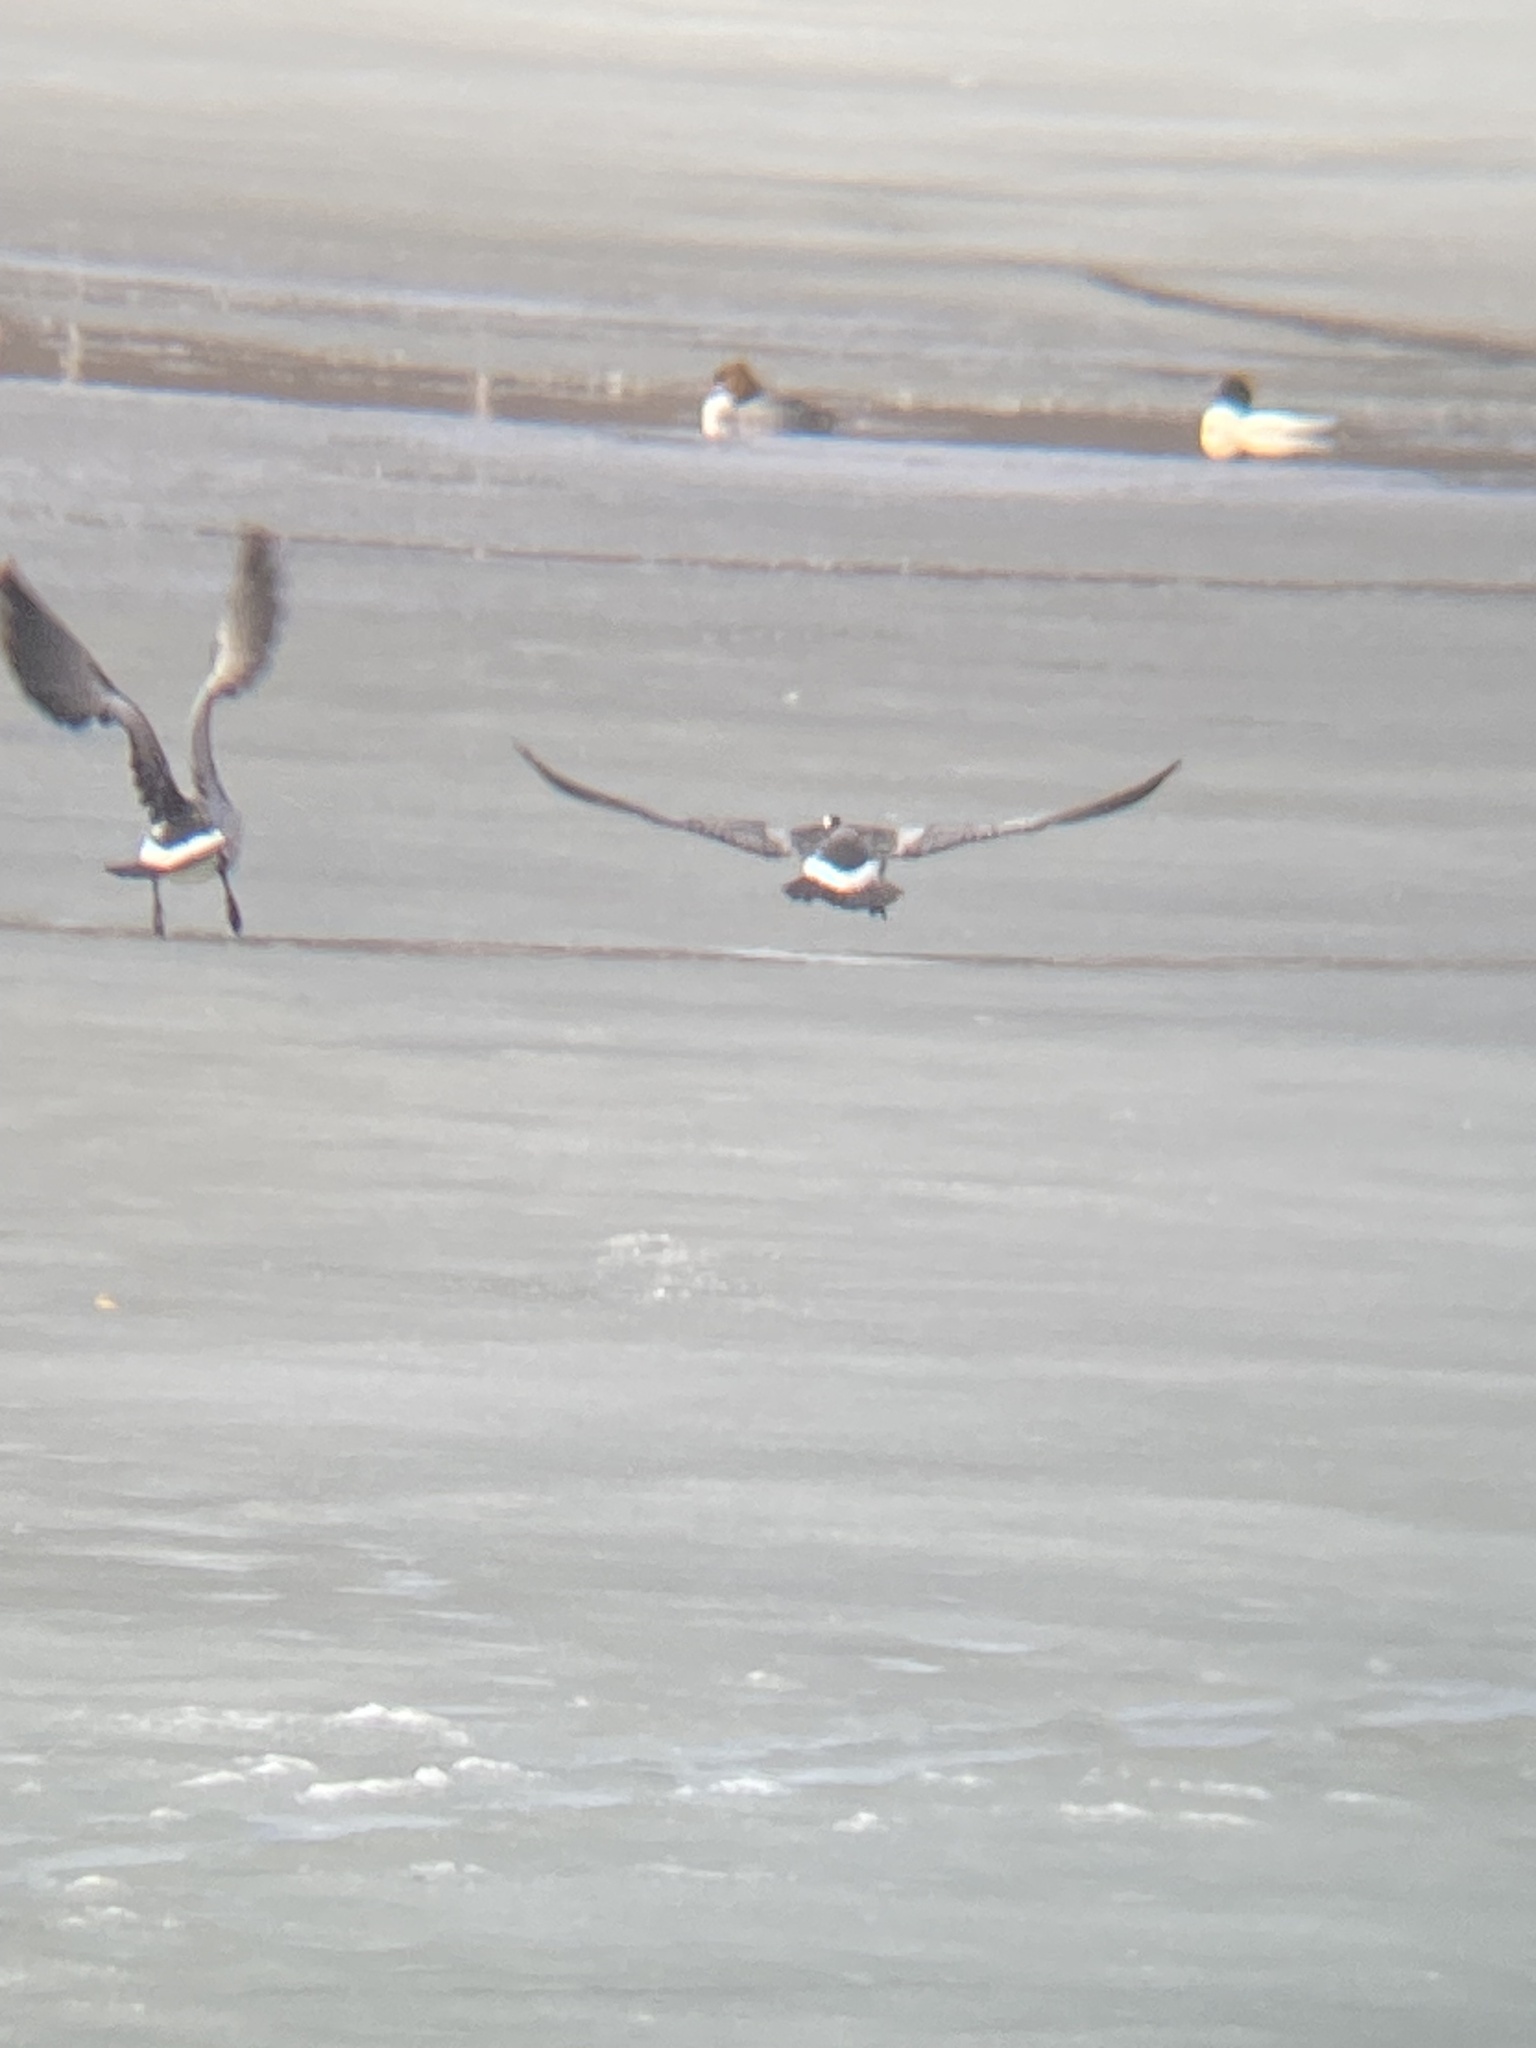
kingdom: Animalia
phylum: Chordata
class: Aves
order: Anseriformes
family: Anatidae
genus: Branta
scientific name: Branta leucopsis
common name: Barnacle goose
